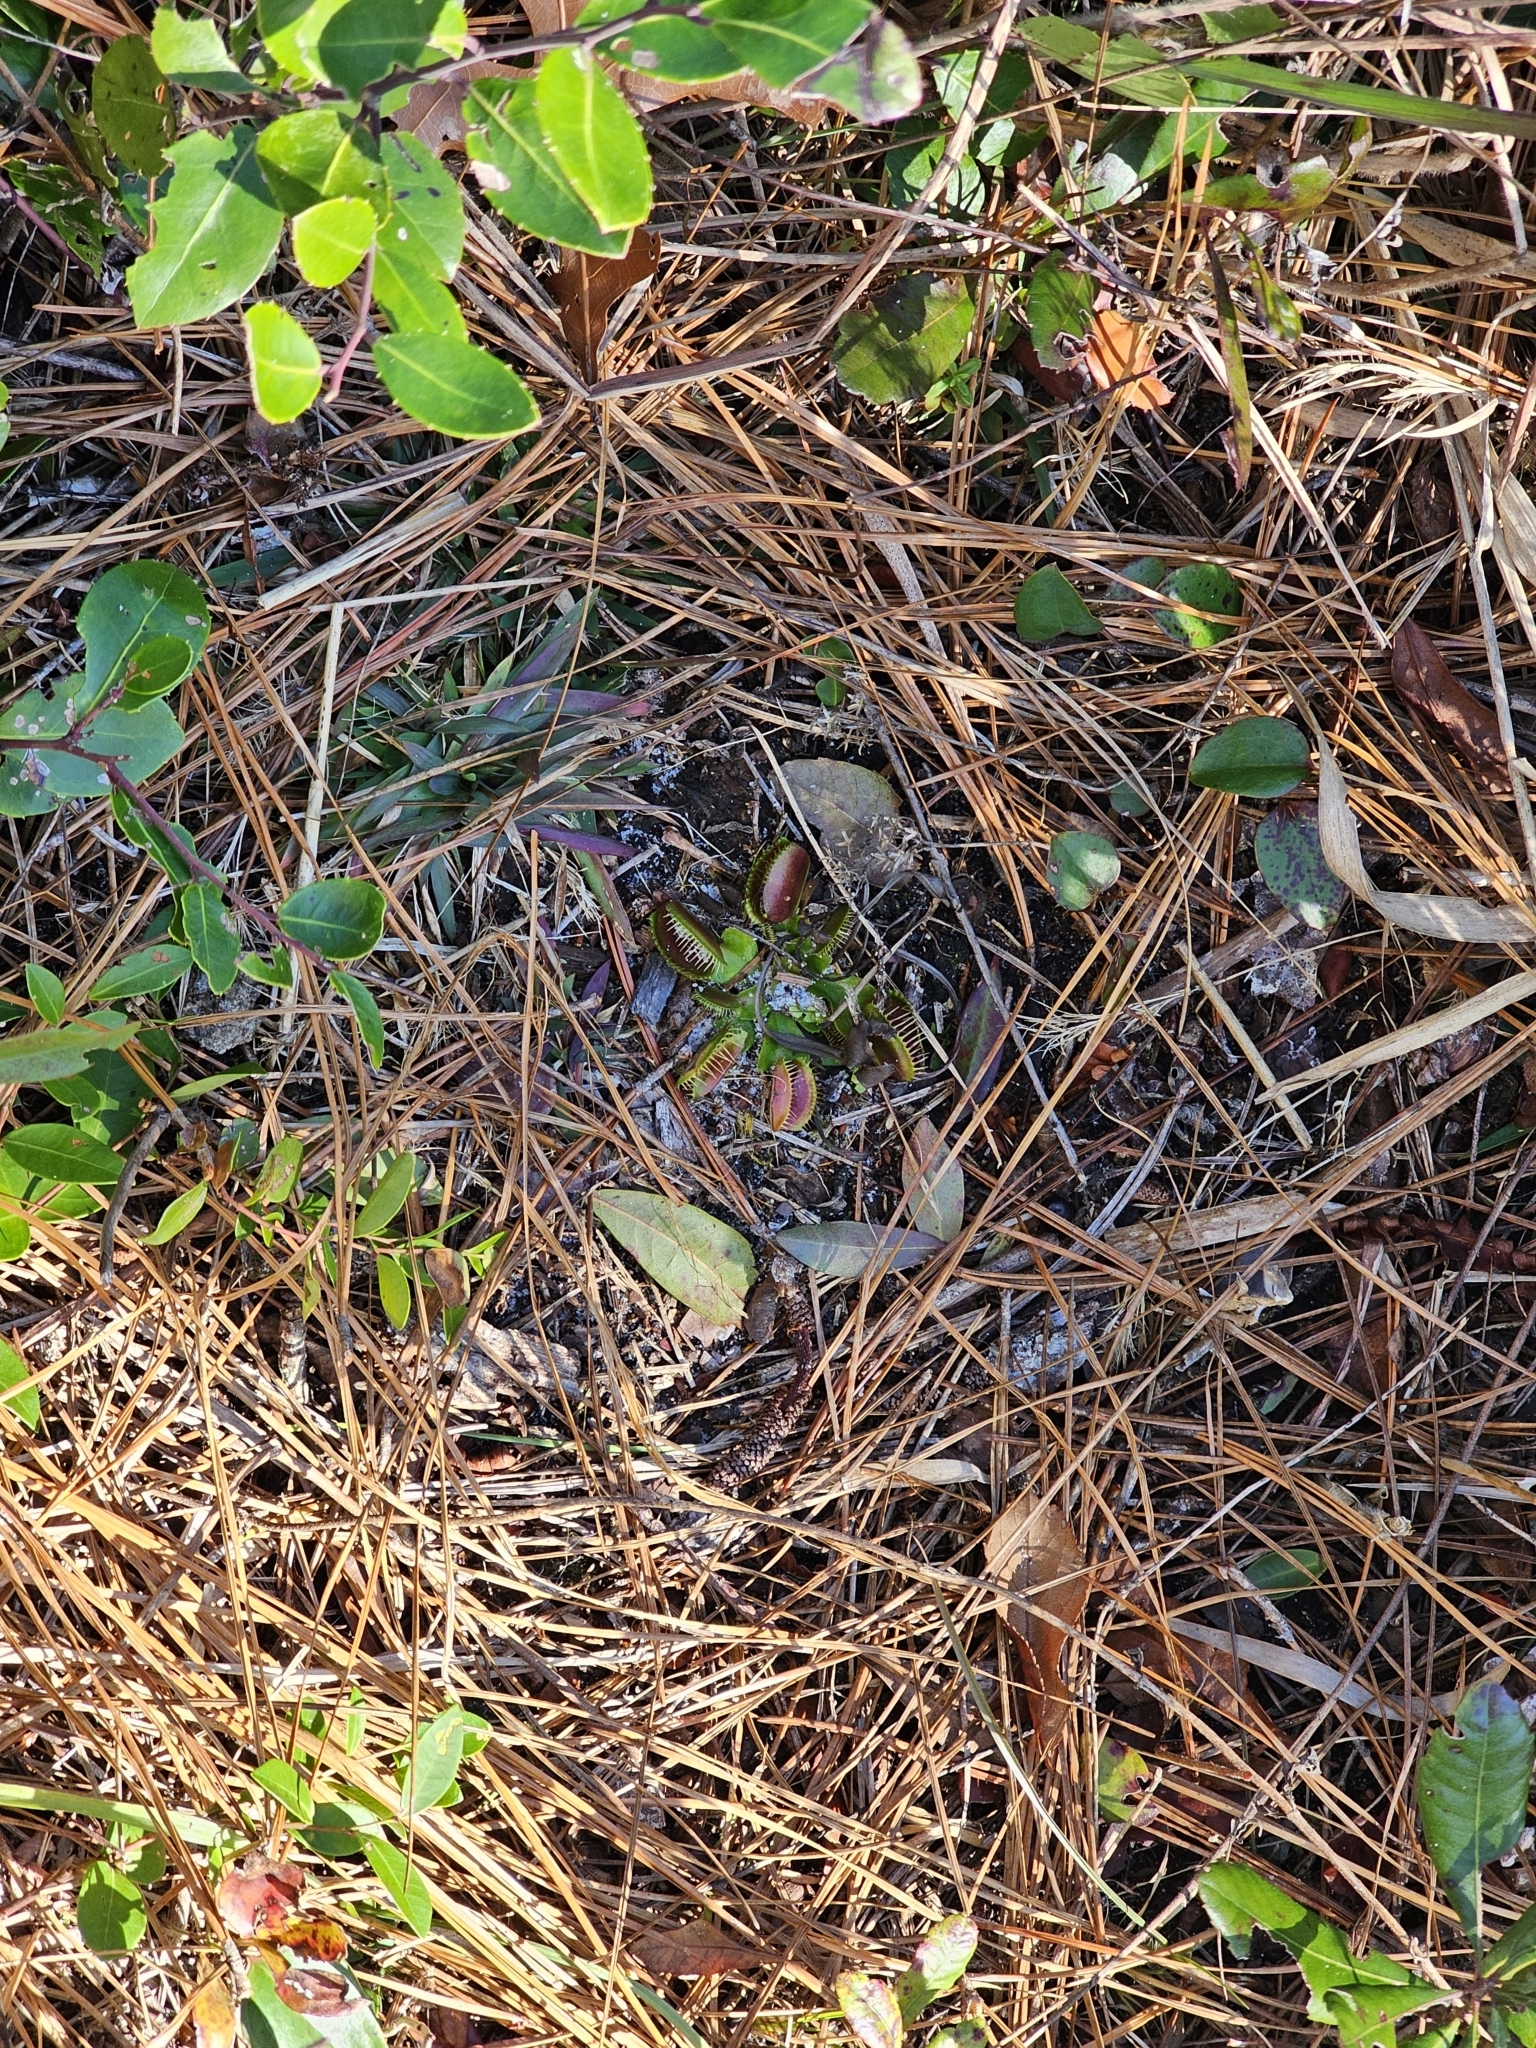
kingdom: Plantae
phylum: Tracheophyta
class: Magnoliopsida
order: Caryophyllales
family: Droseraceae
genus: Dionaea
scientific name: Dionaea muscipula
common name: Venus flytrap
